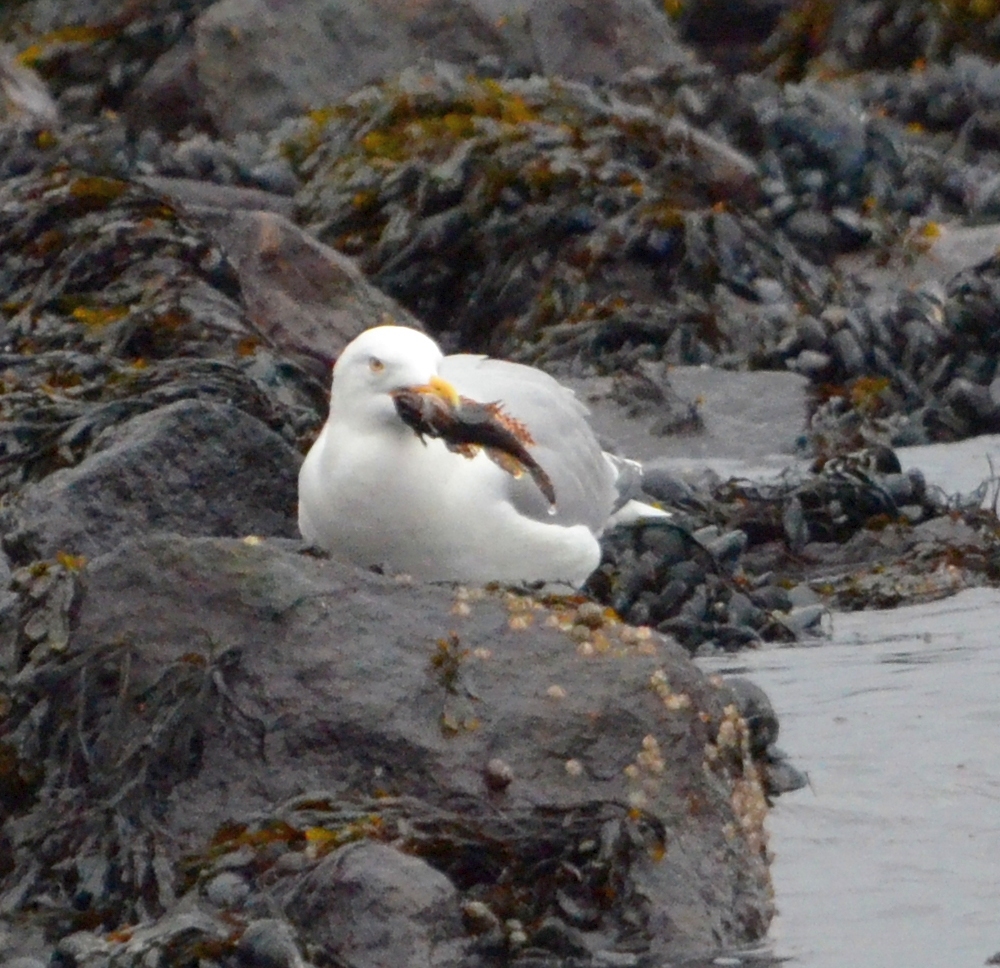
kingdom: Animalia
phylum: Chordata
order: Scorpaeniformes
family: Cottidae
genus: Taurulus
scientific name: Taurulus bubalis
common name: Sea scorpion
